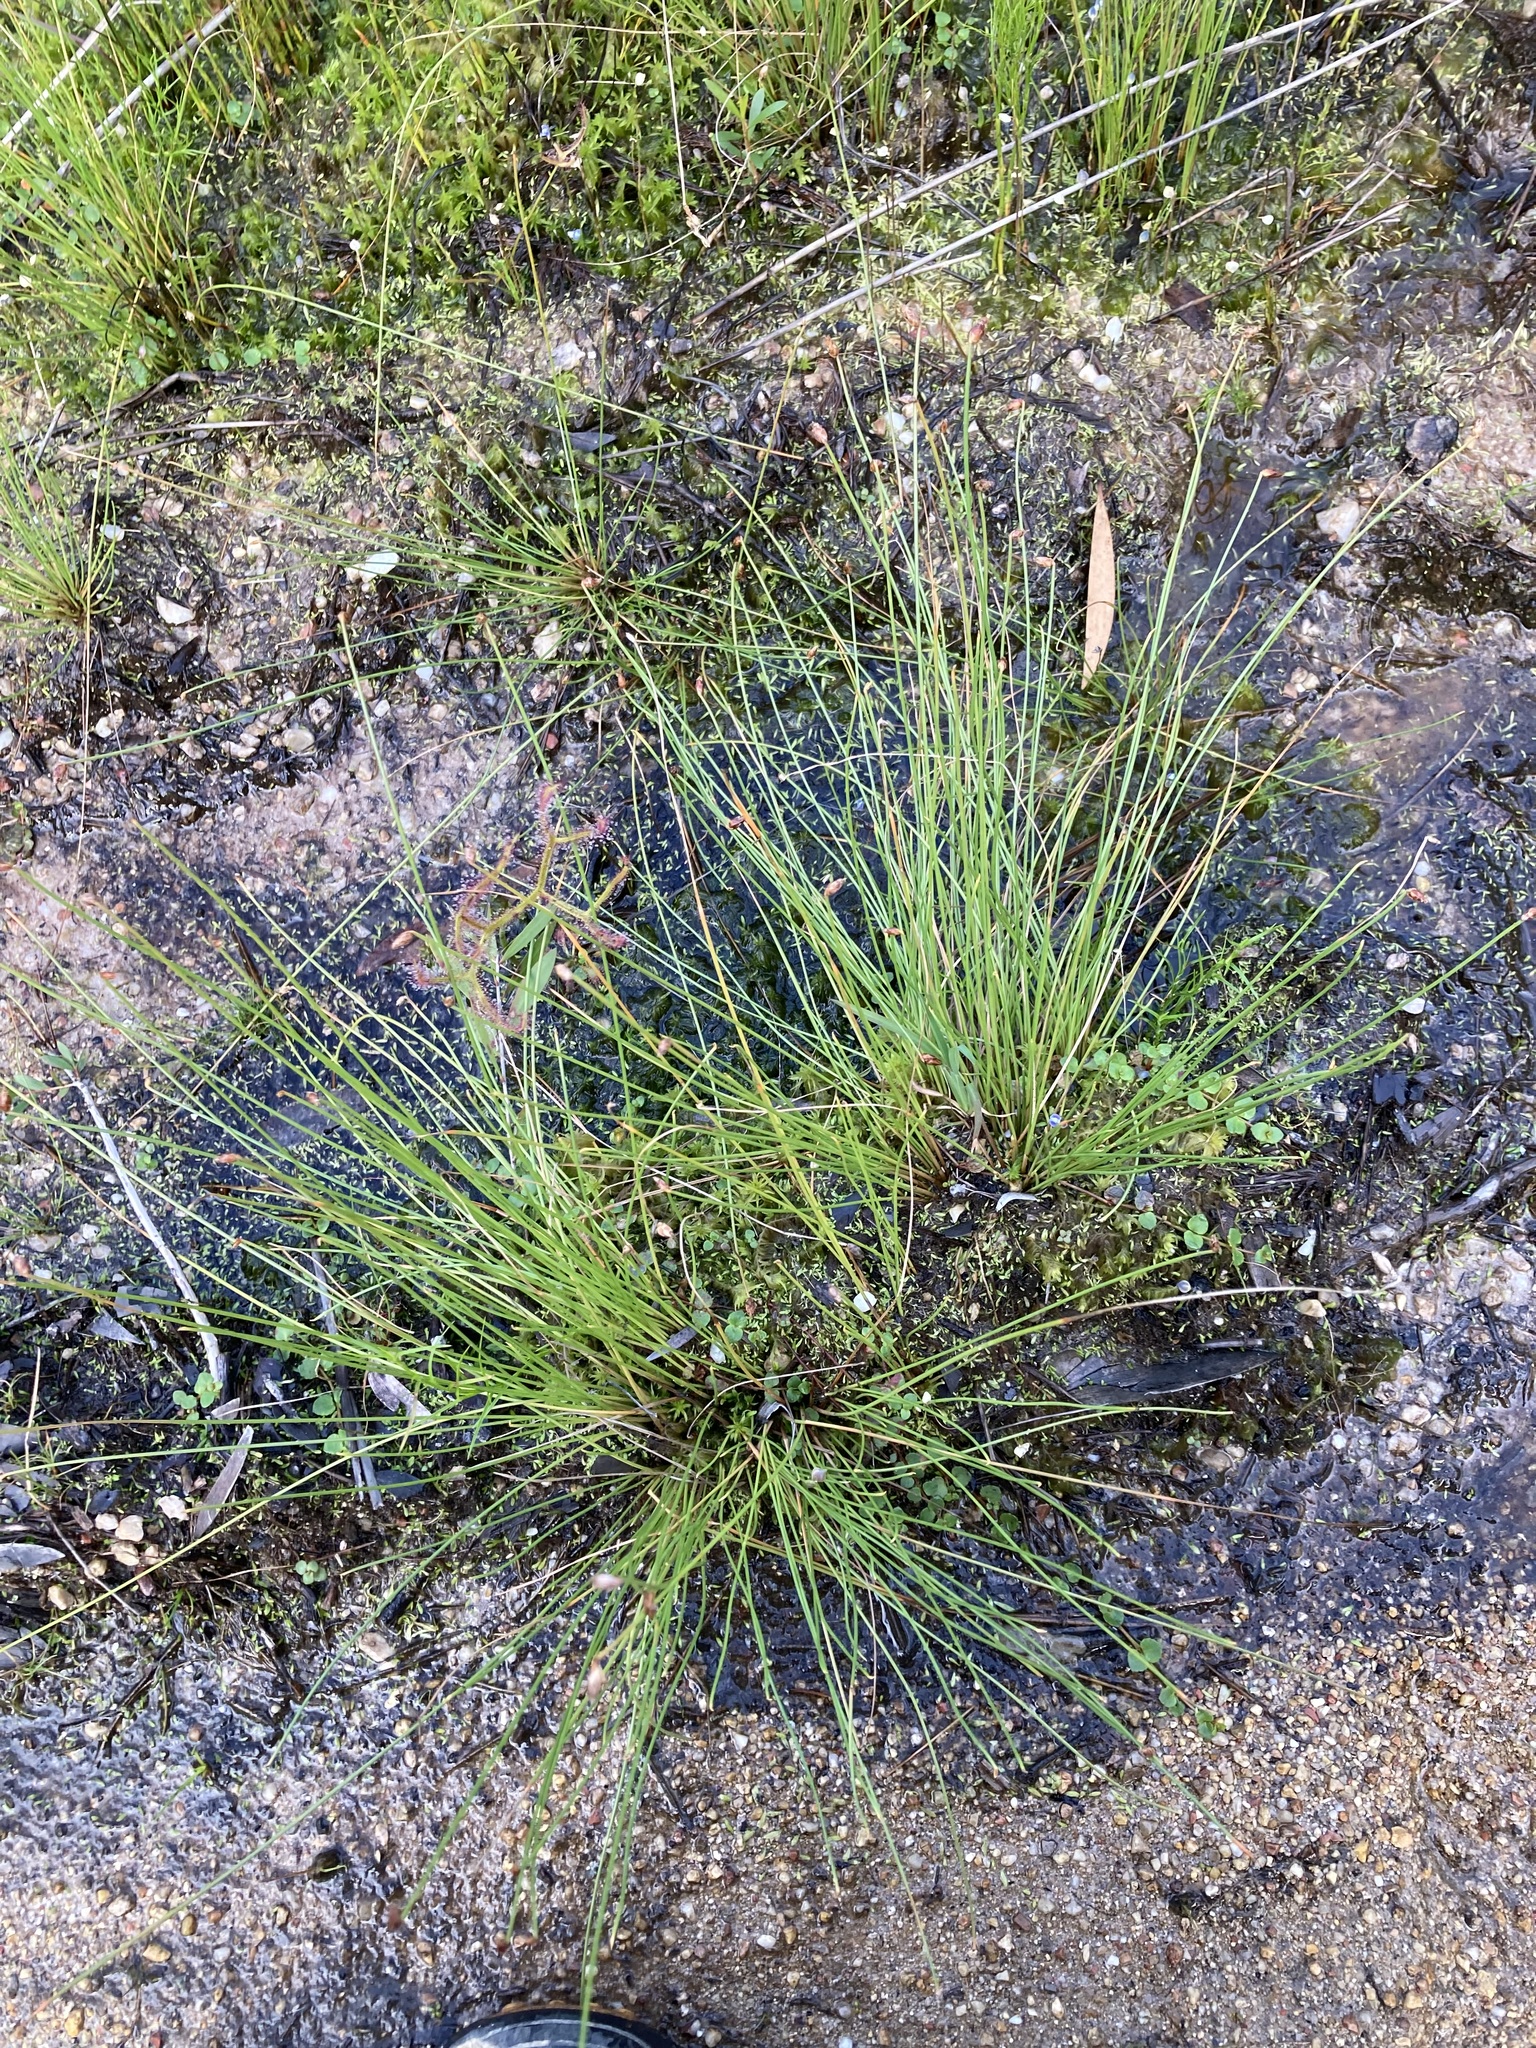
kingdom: Plantae
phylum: Tracheophyta
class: Liliopsida
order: Poales
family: Cyperaceae
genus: Fimbristylis
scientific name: Fimbristylis nutans
